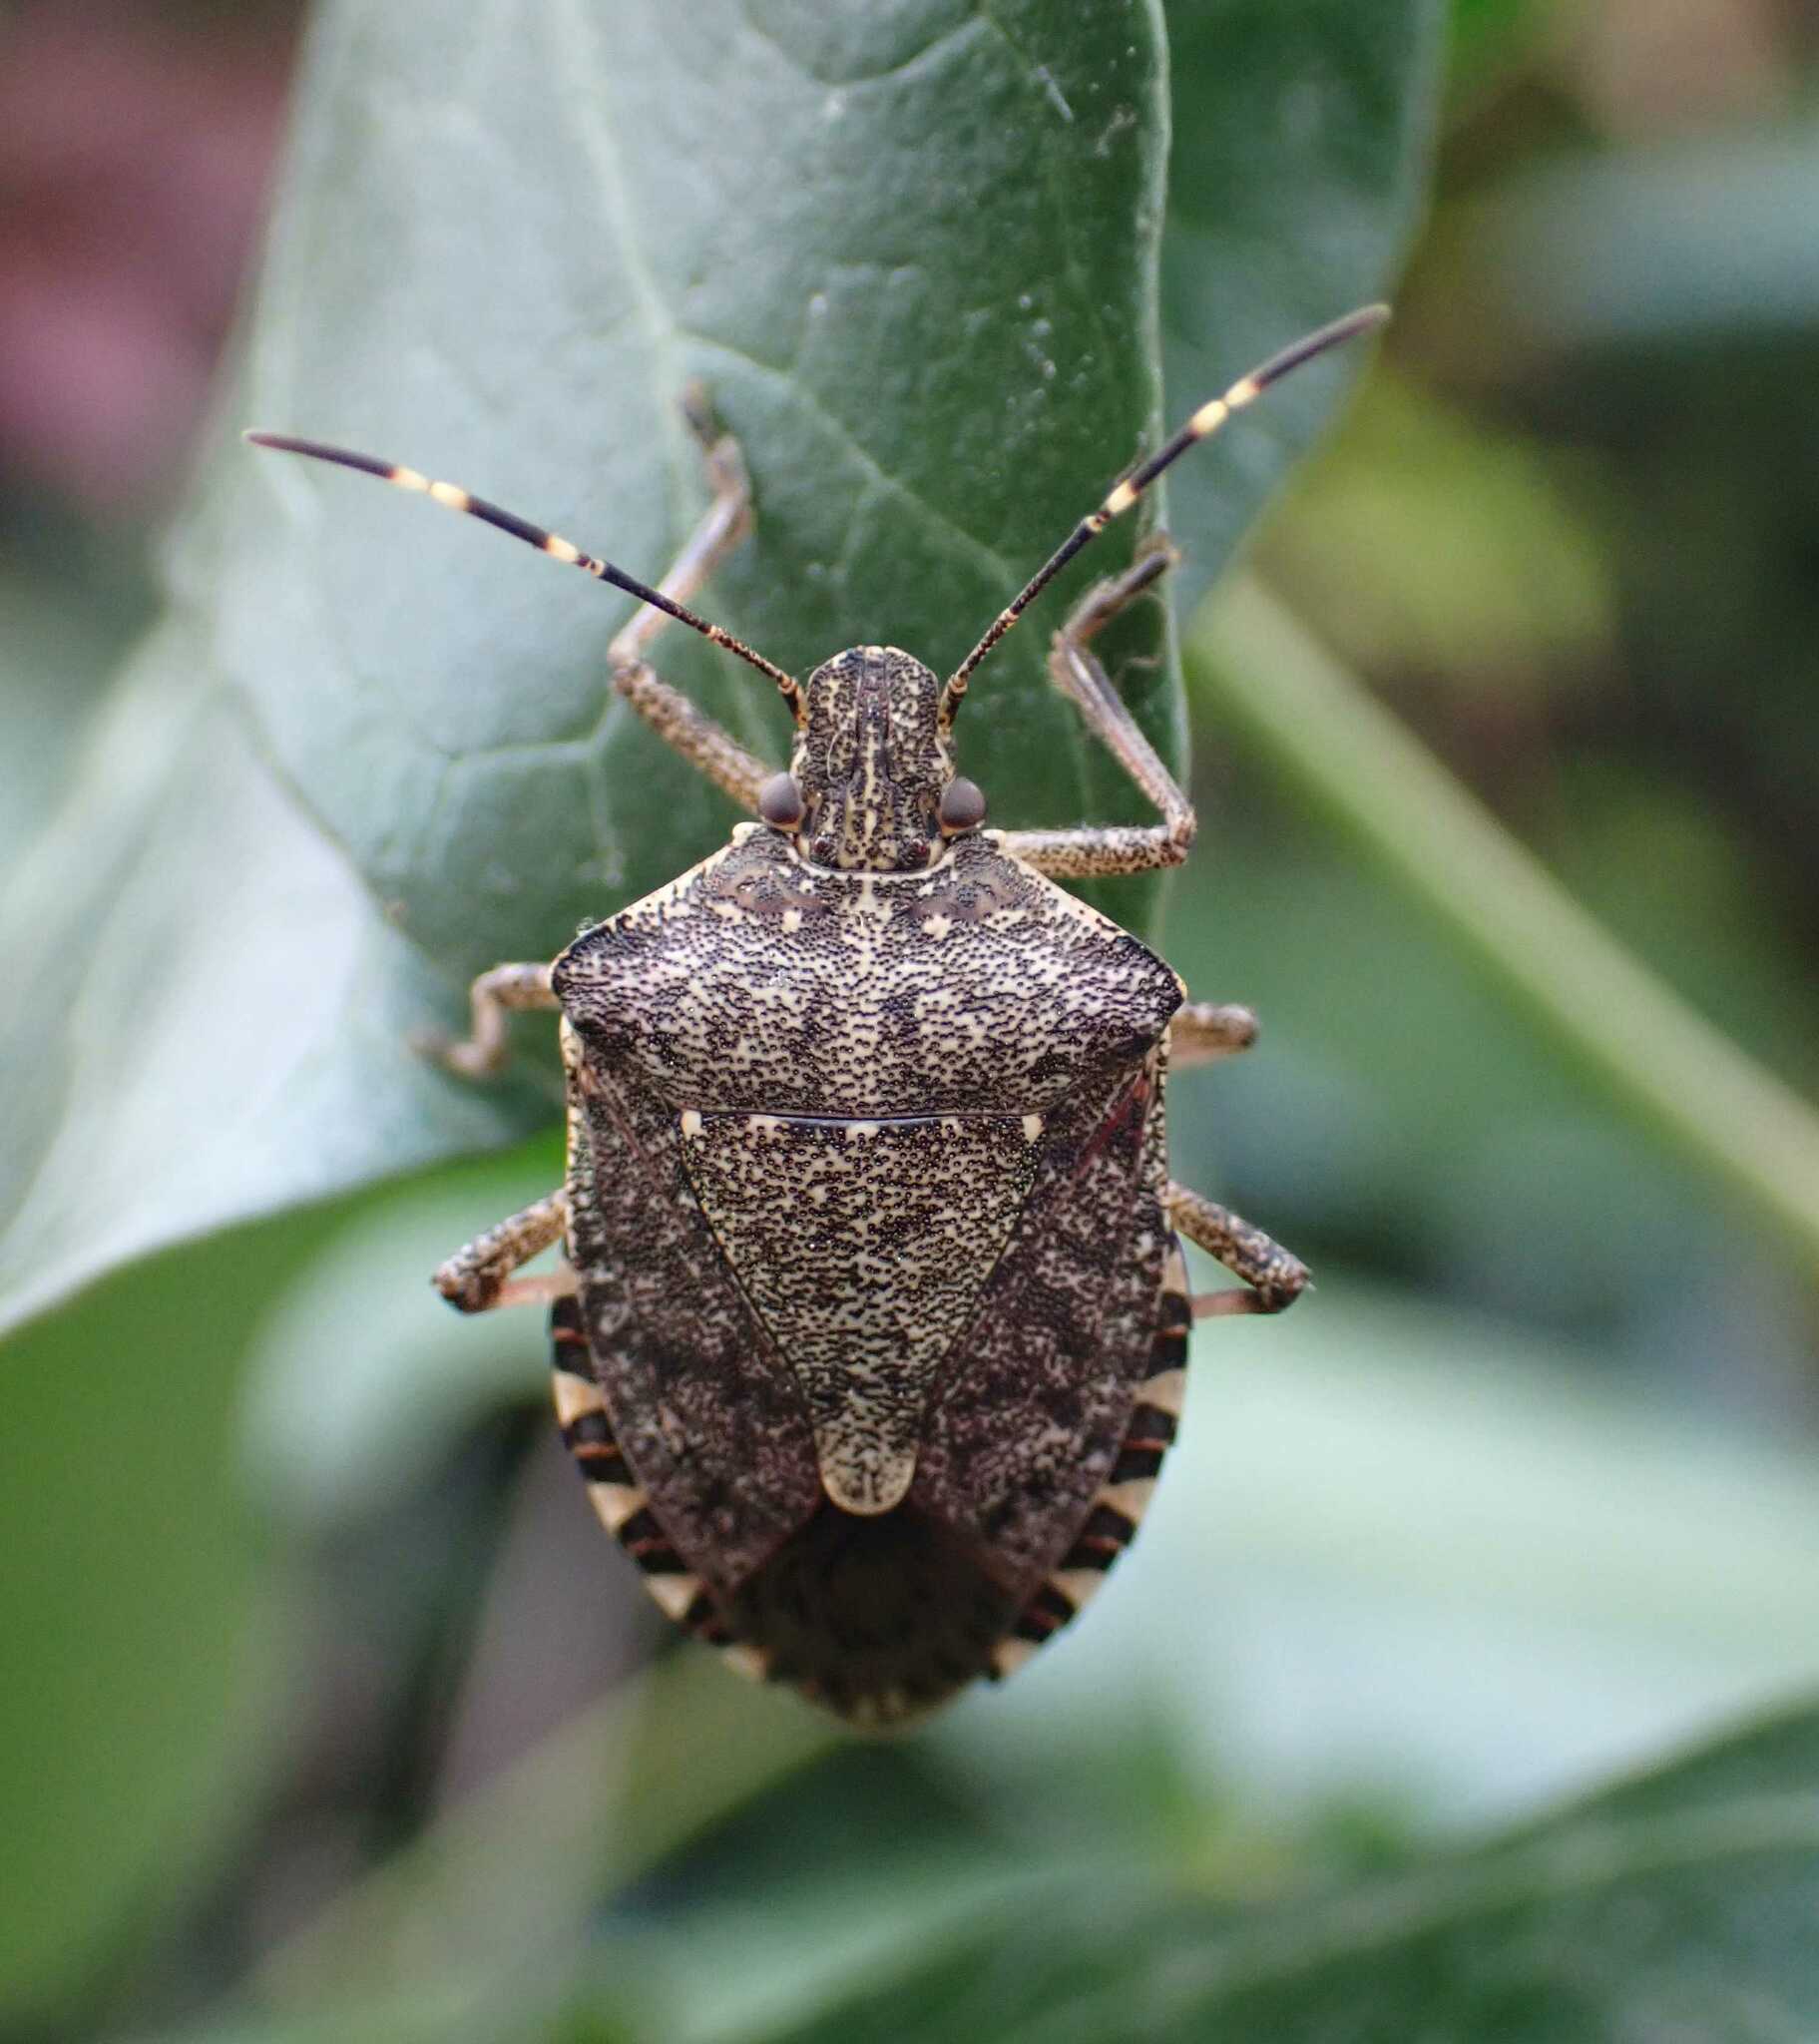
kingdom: Animalia
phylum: Arthropoda
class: Insecta
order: Hemiptera
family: Pentatomidae
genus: Halyomorpha
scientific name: Halyomorpha halys
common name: Brown marmorated stink bug
